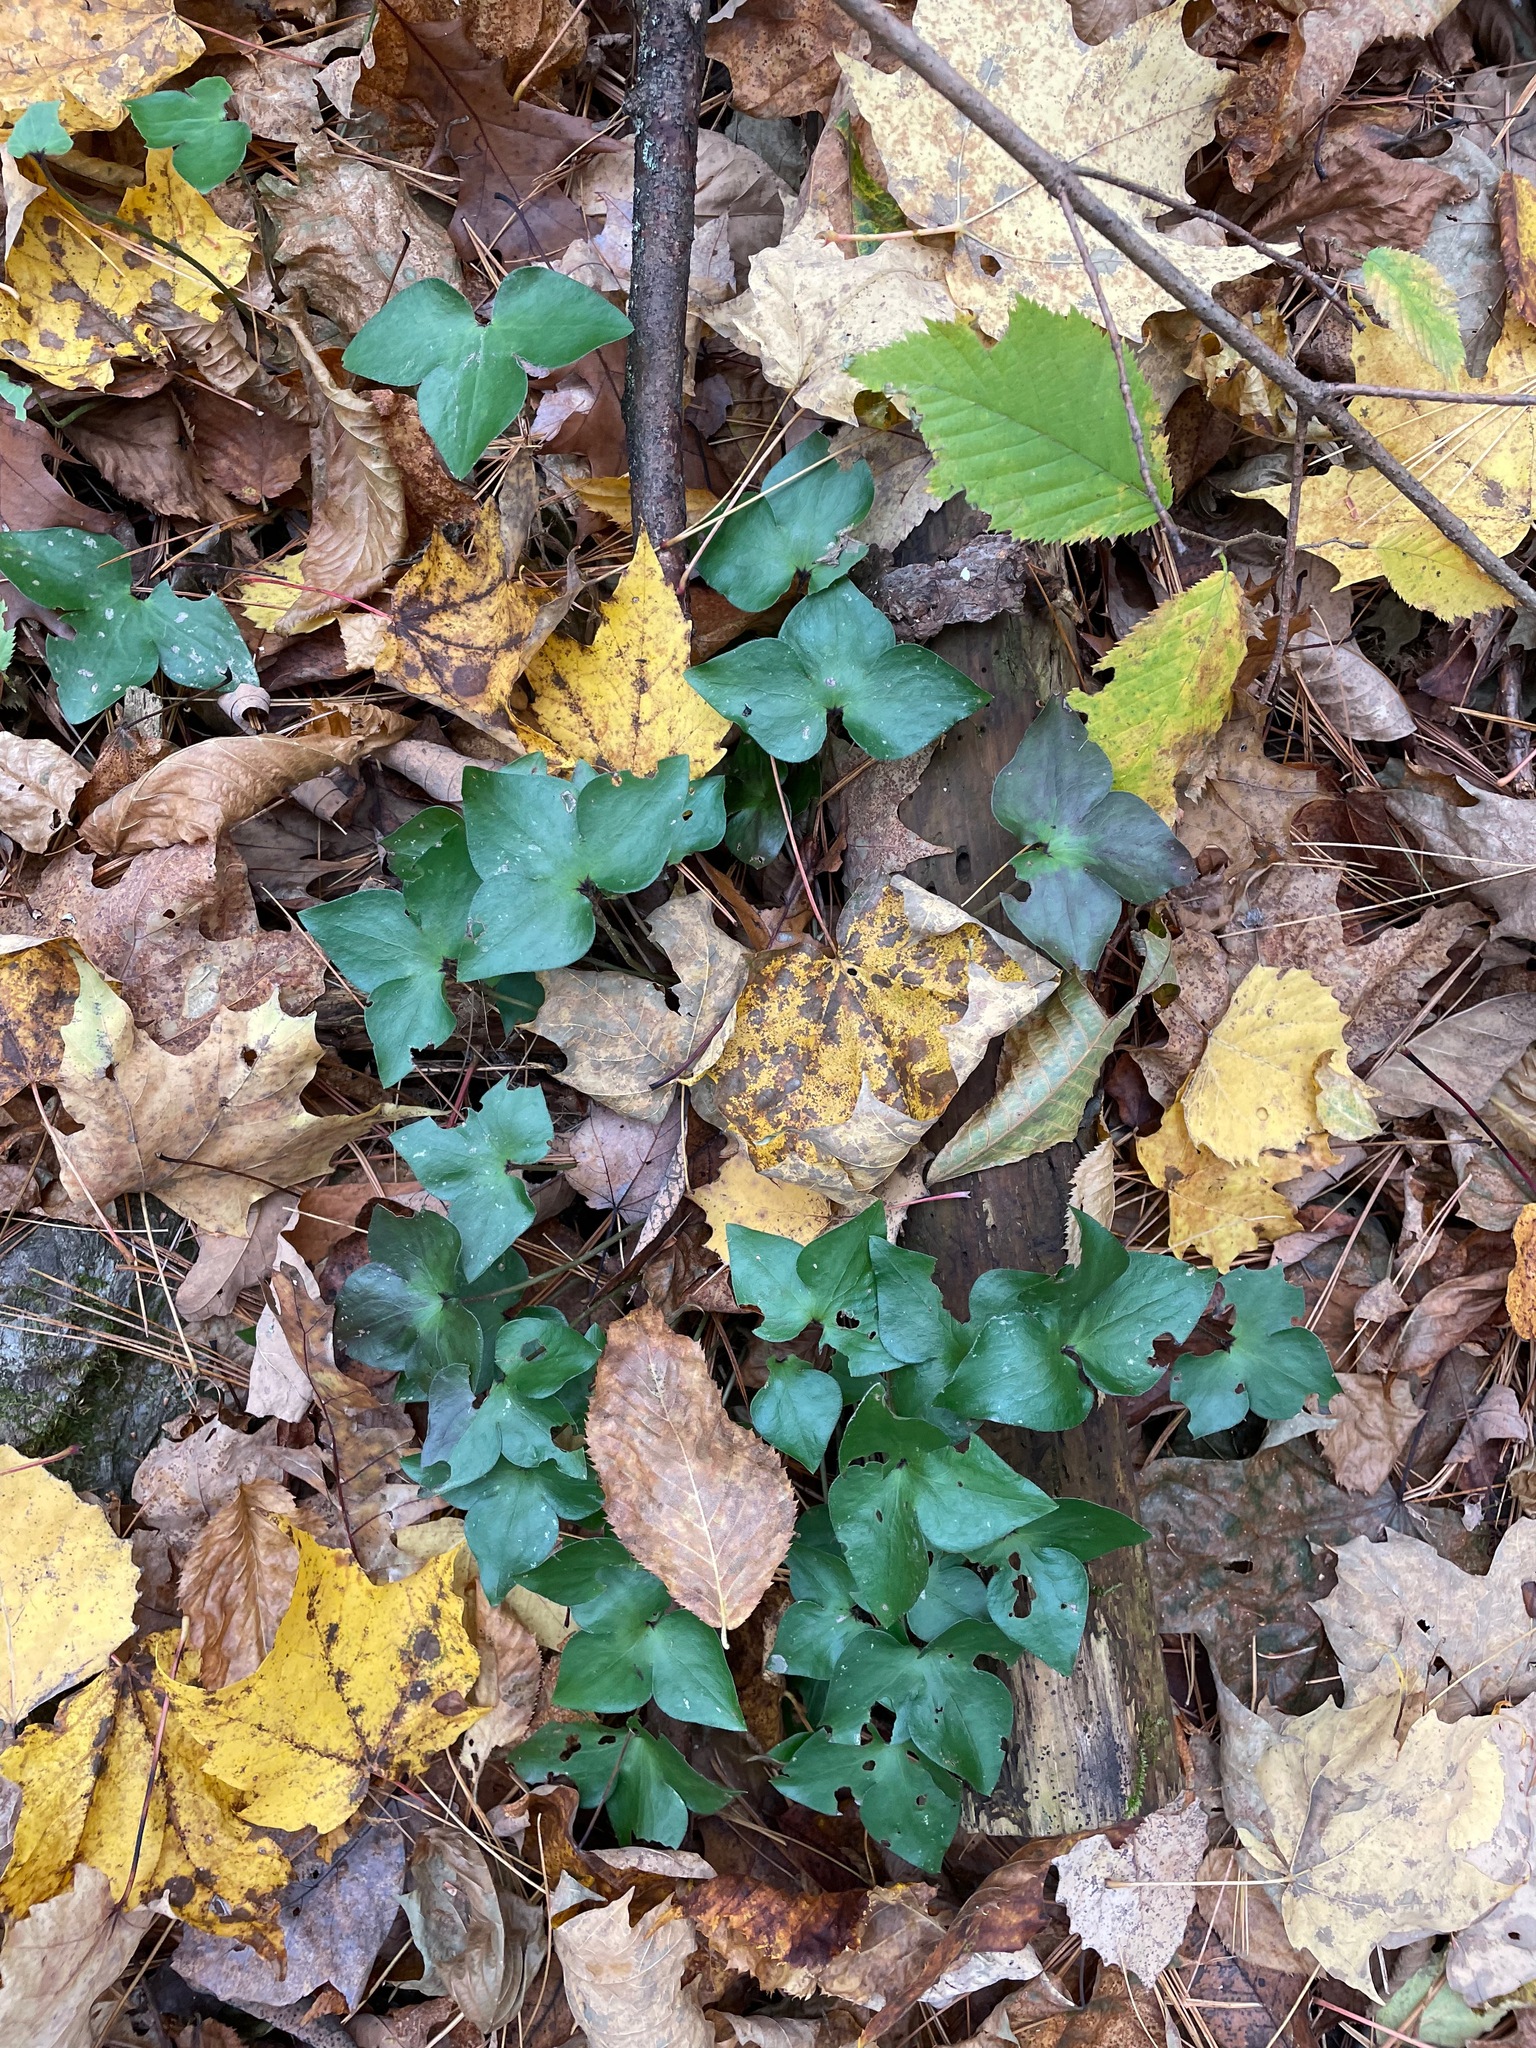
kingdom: Plantae
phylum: Tracheophyta
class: Magnoliopsida
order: Ranunculales
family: Ranunculaceae
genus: Hepatica
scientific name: Hepatica acutiloba
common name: Sharp-lobed hepatica
